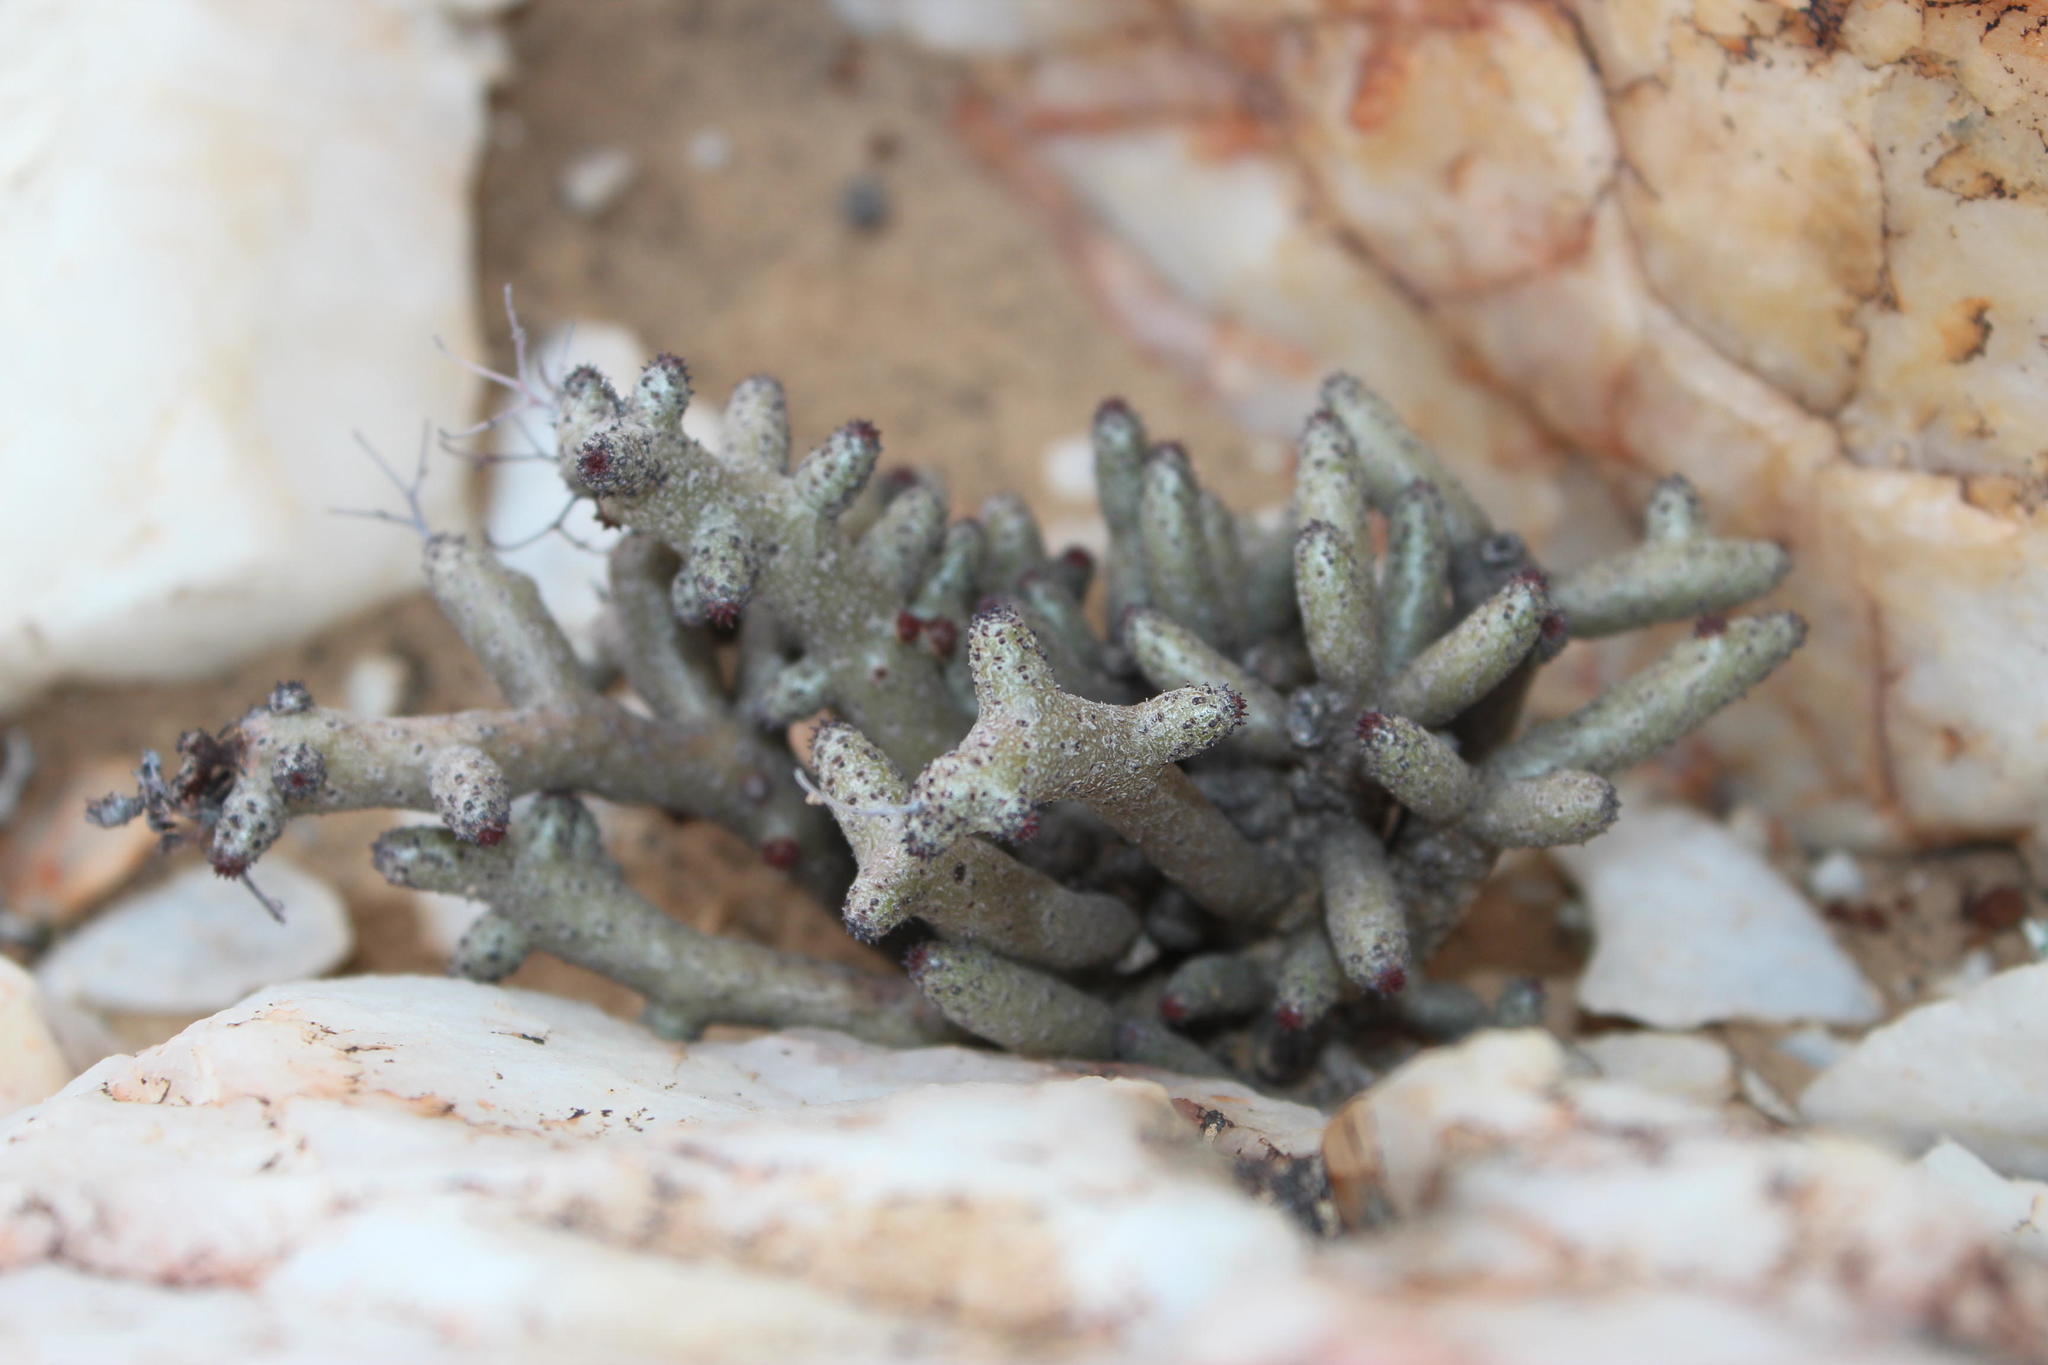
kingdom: Plantae
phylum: Tracheophyta
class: Magnoliopsida
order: Saxifragales
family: Crassulaceae
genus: Tylecodon
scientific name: Tylecodon buchholzianus
